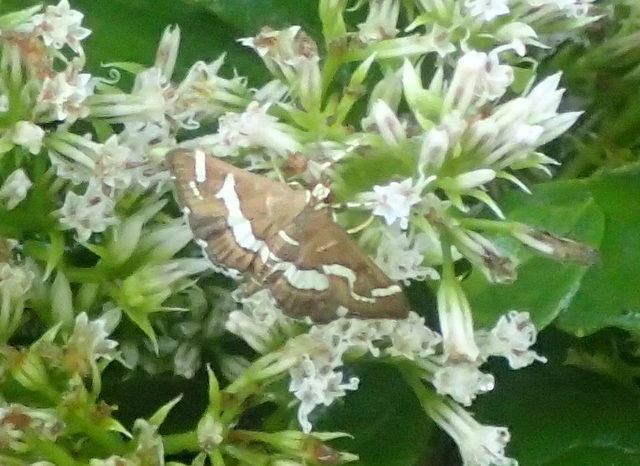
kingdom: Animalia
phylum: Arthropoda
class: Insecta
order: Lepidoptera
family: Crambidae
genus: Spoladea
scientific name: Spoladea recurvalis
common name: Beet webworm moth
